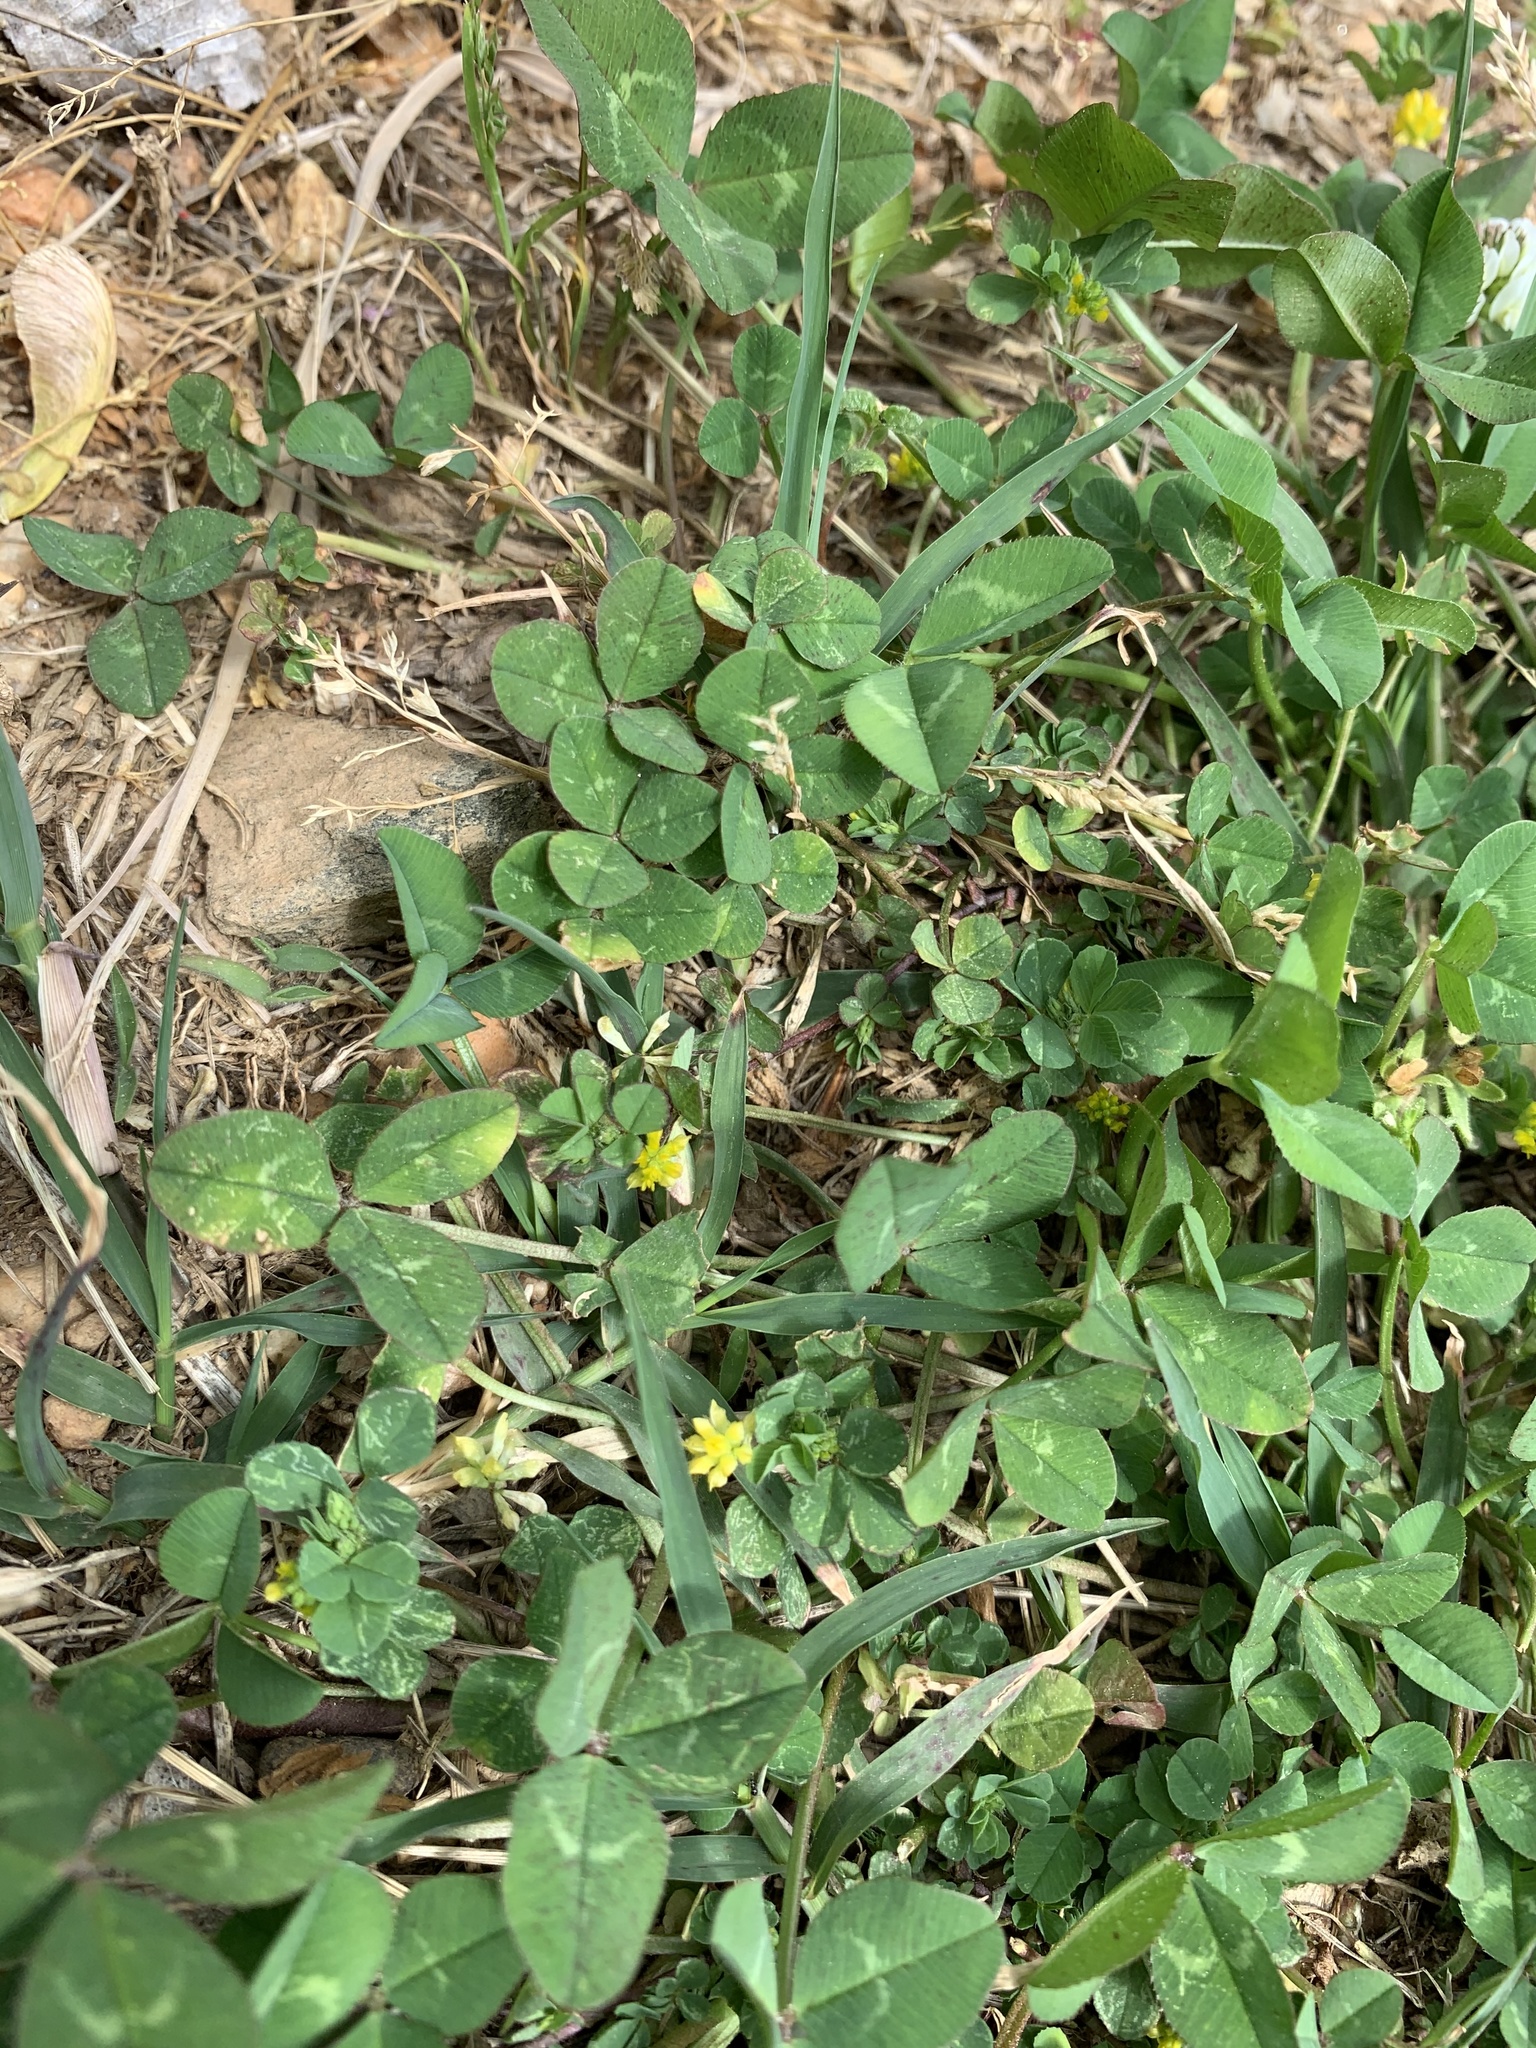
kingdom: Plantae
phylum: Tracheophyta
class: Magnoliopsida
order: Fabales
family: Fabaceae
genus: Trifolium
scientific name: Trifolium dubium
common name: Suckling clover
